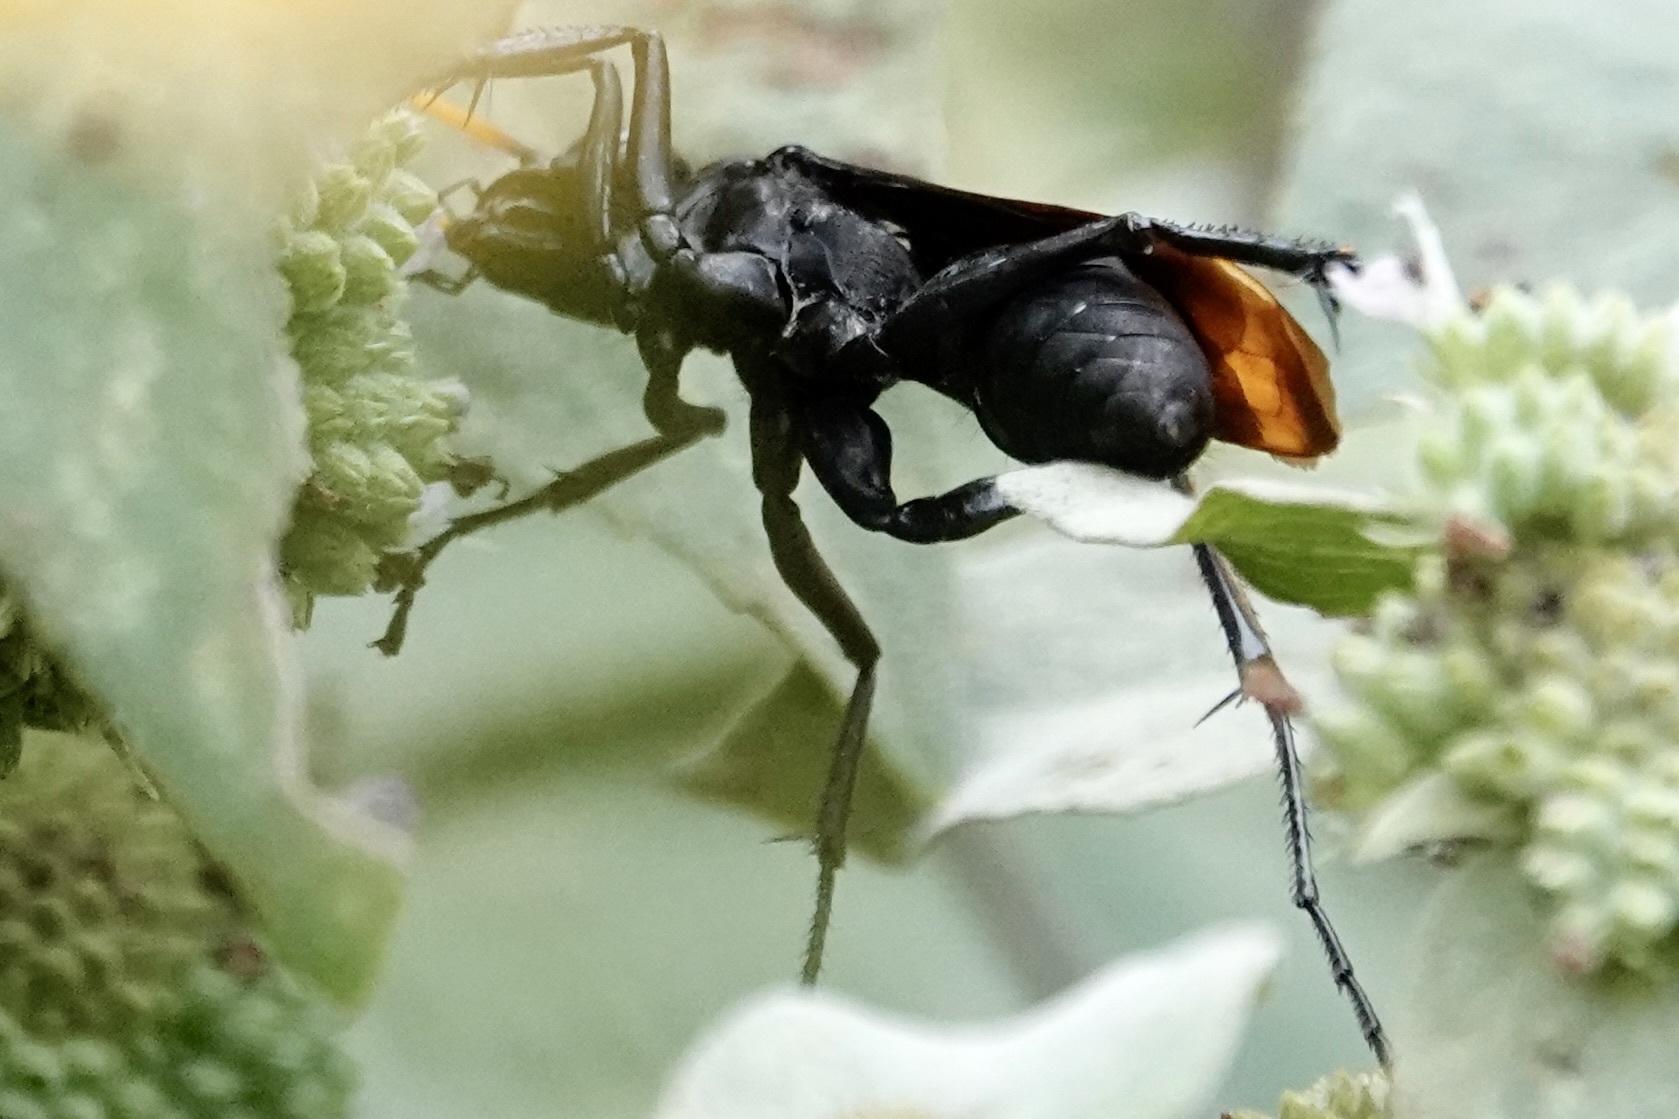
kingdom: Animalia
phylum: Arthropoda
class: Insecta
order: Hymenoptera
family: Pompilidae
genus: Entypus
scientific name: Entypus unifasciatus
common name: Eastern tawny-horned spider wasp
